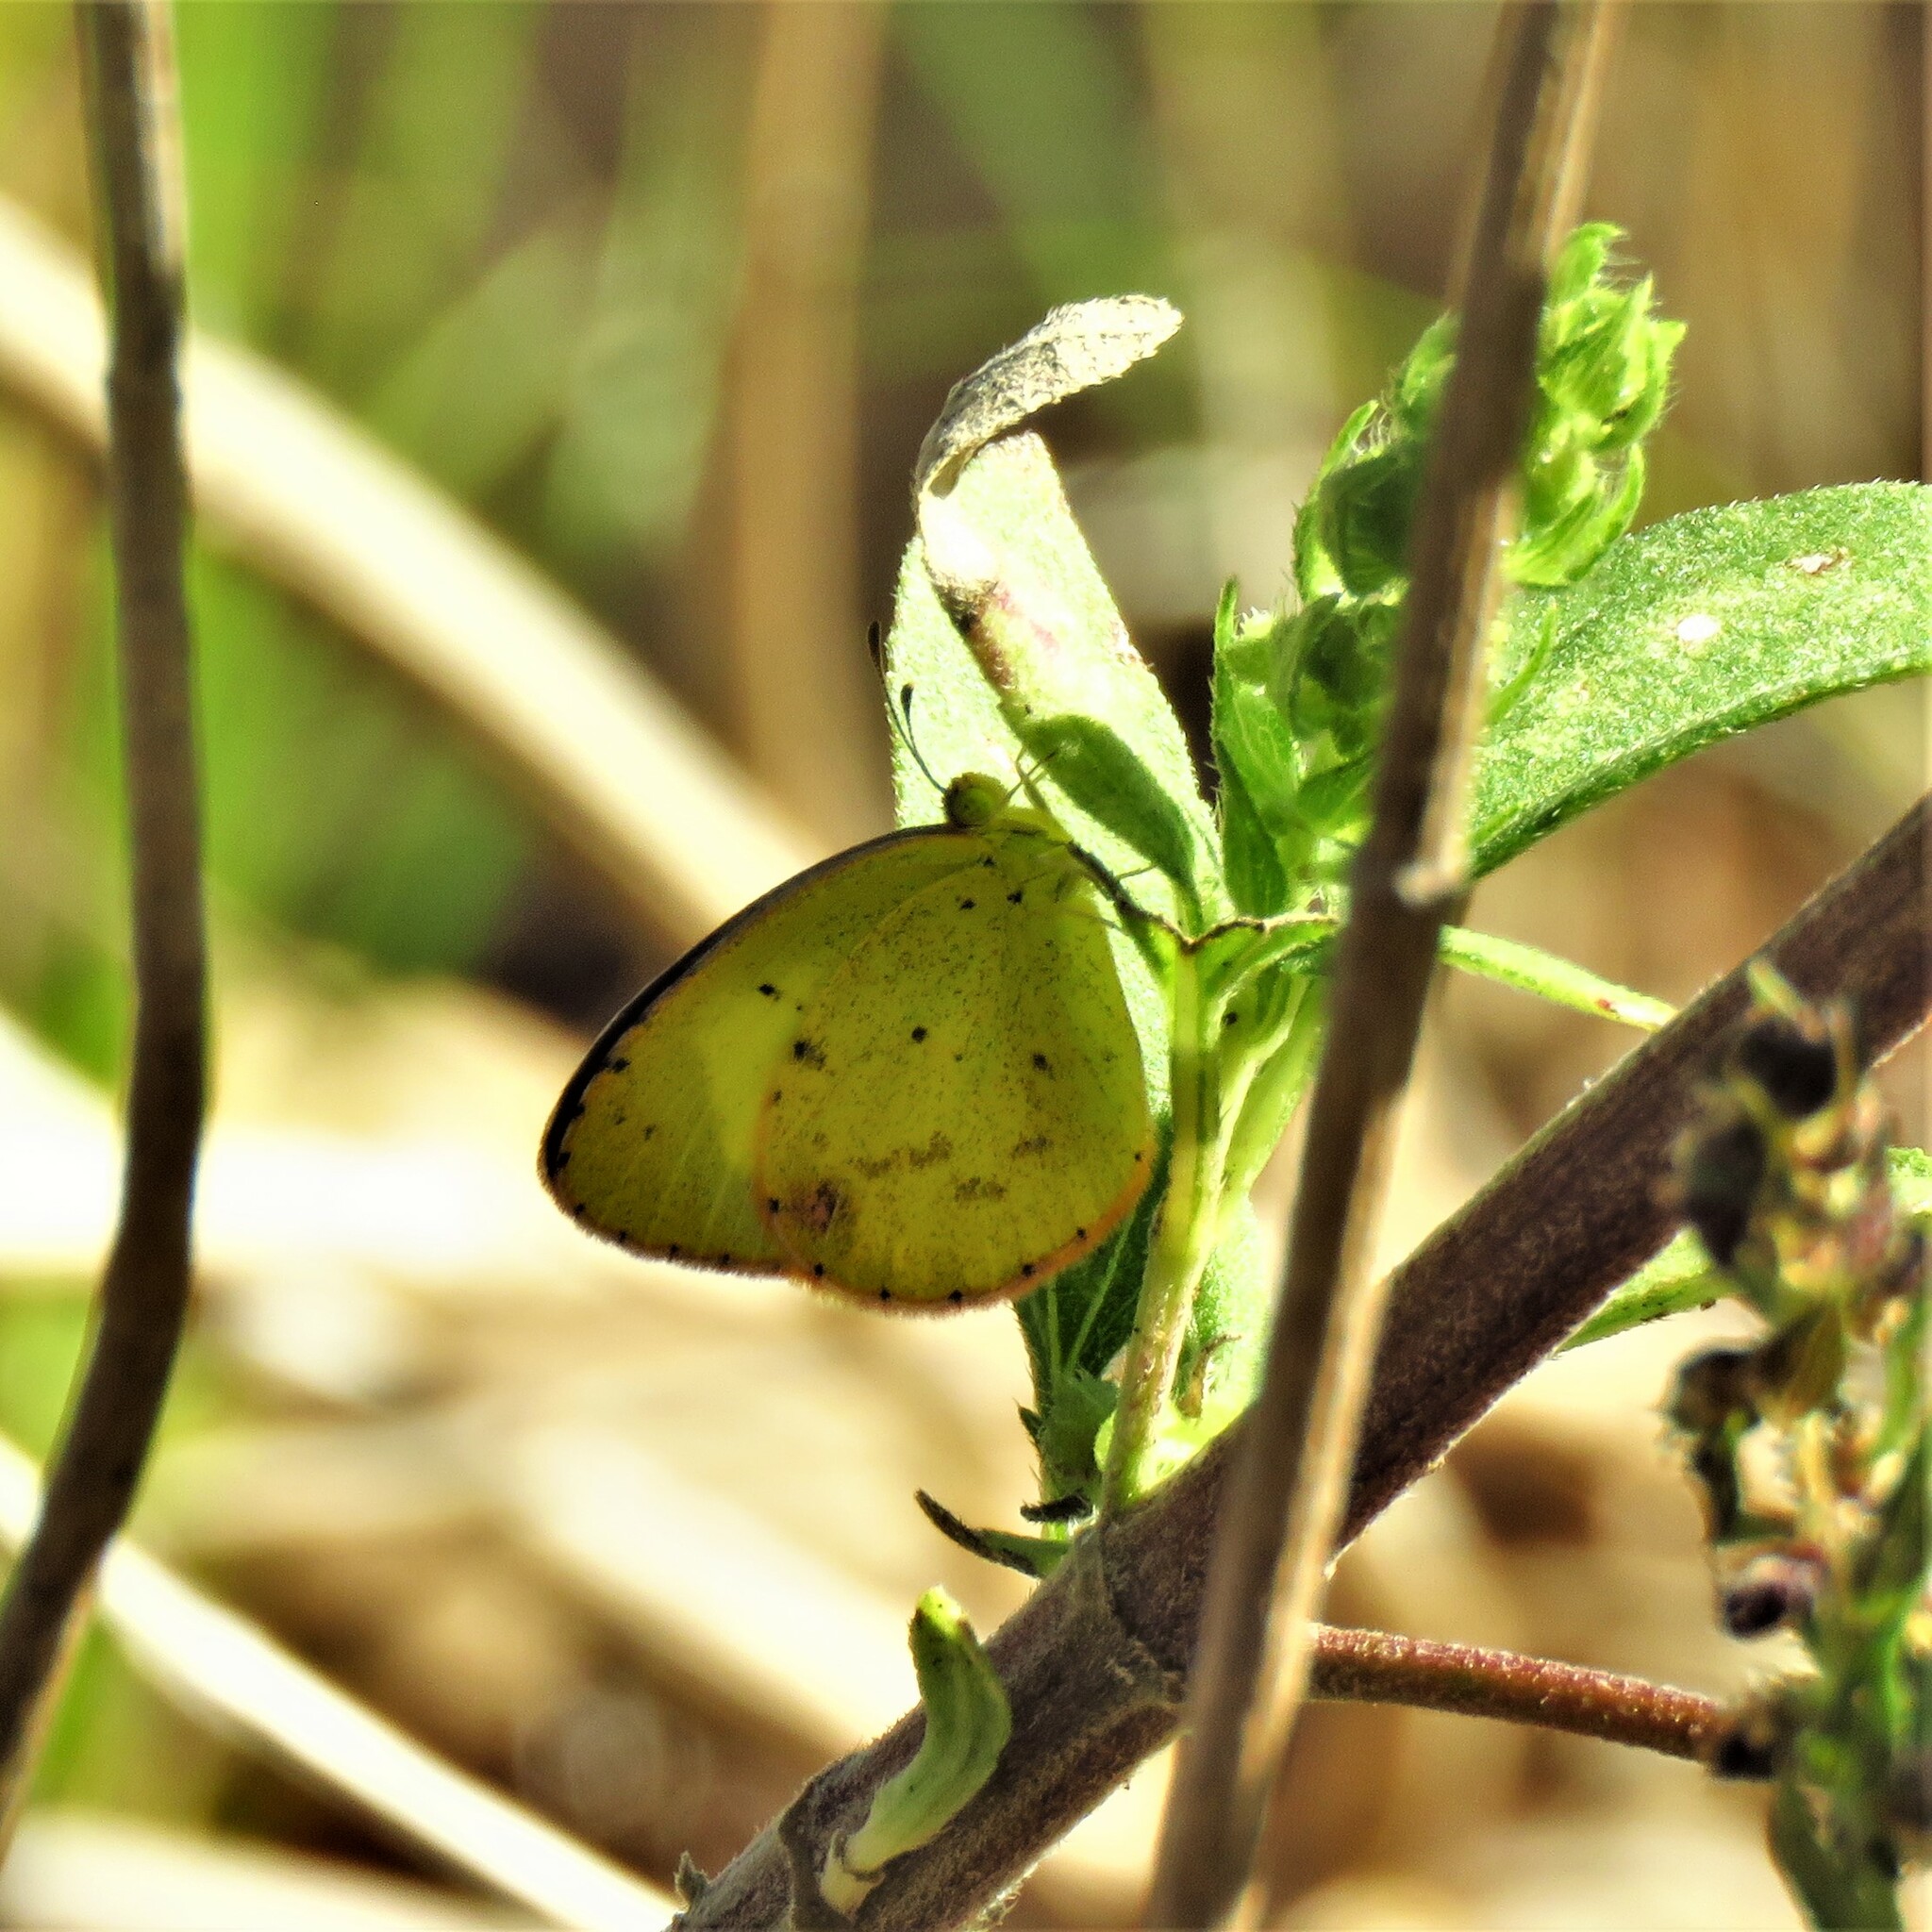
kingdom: Animalia
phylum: Arthropoda
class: Insecta
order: Lepidoptera
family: Pieridae
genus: Pyrisitia
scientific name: Pyrisitia lisa
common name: Little yellow
